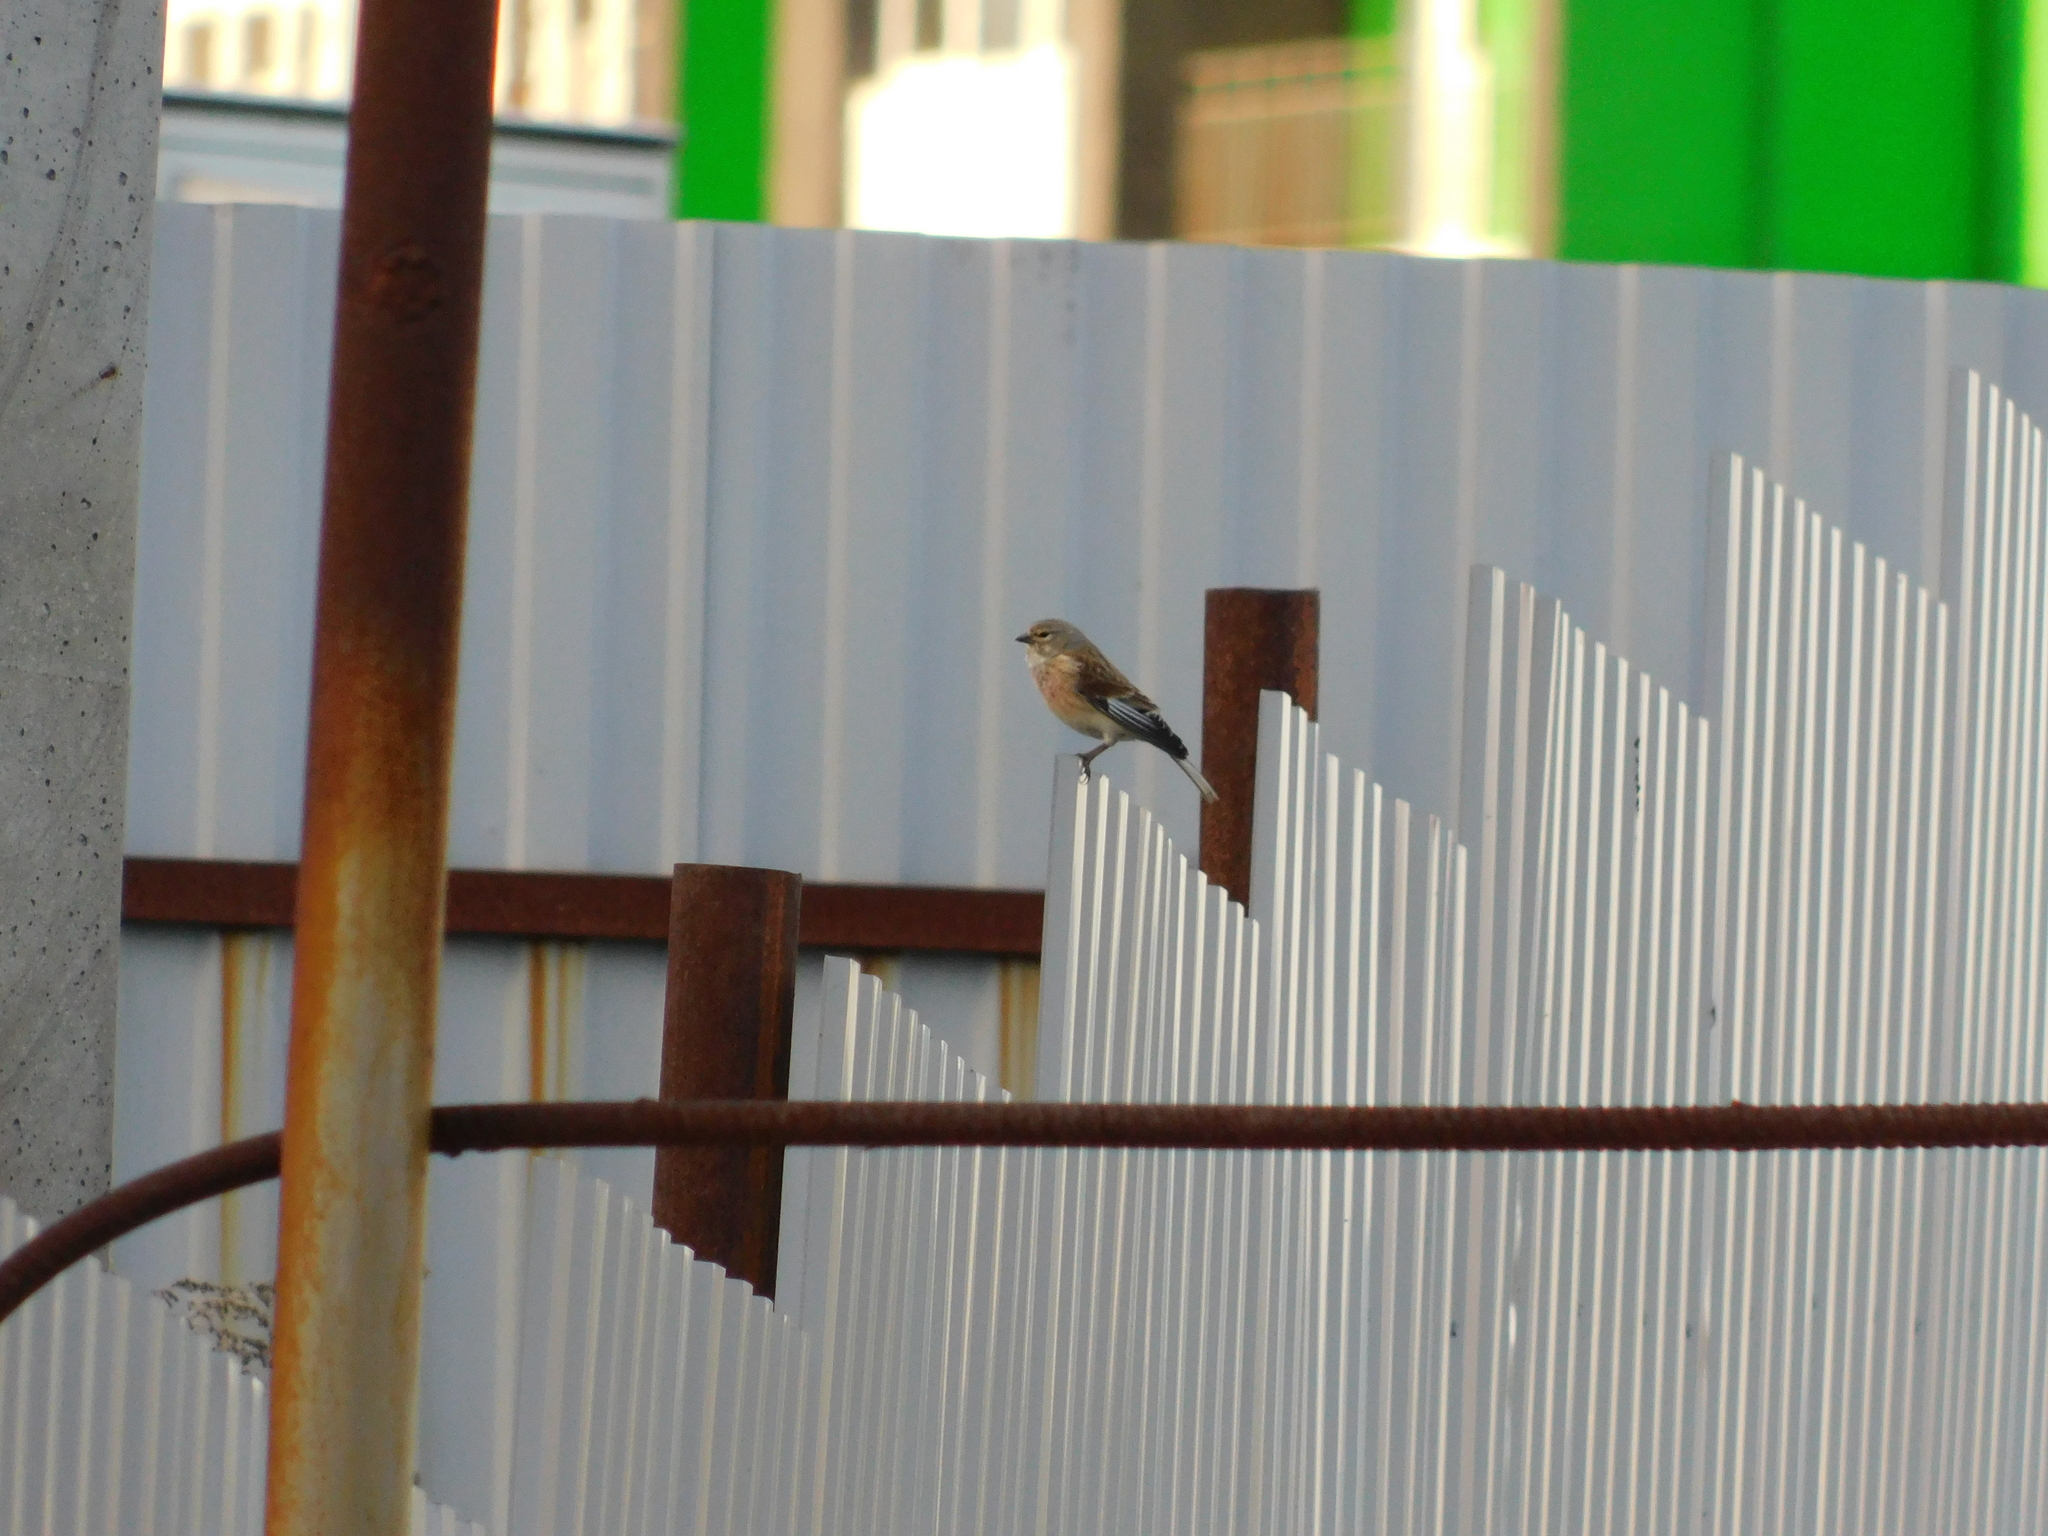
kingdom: Animalia
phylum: Chordata
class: Aves
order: Passeriformes
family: Fringillidae
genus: Linaria
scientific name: Linaria cannabina
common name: Common linnet
